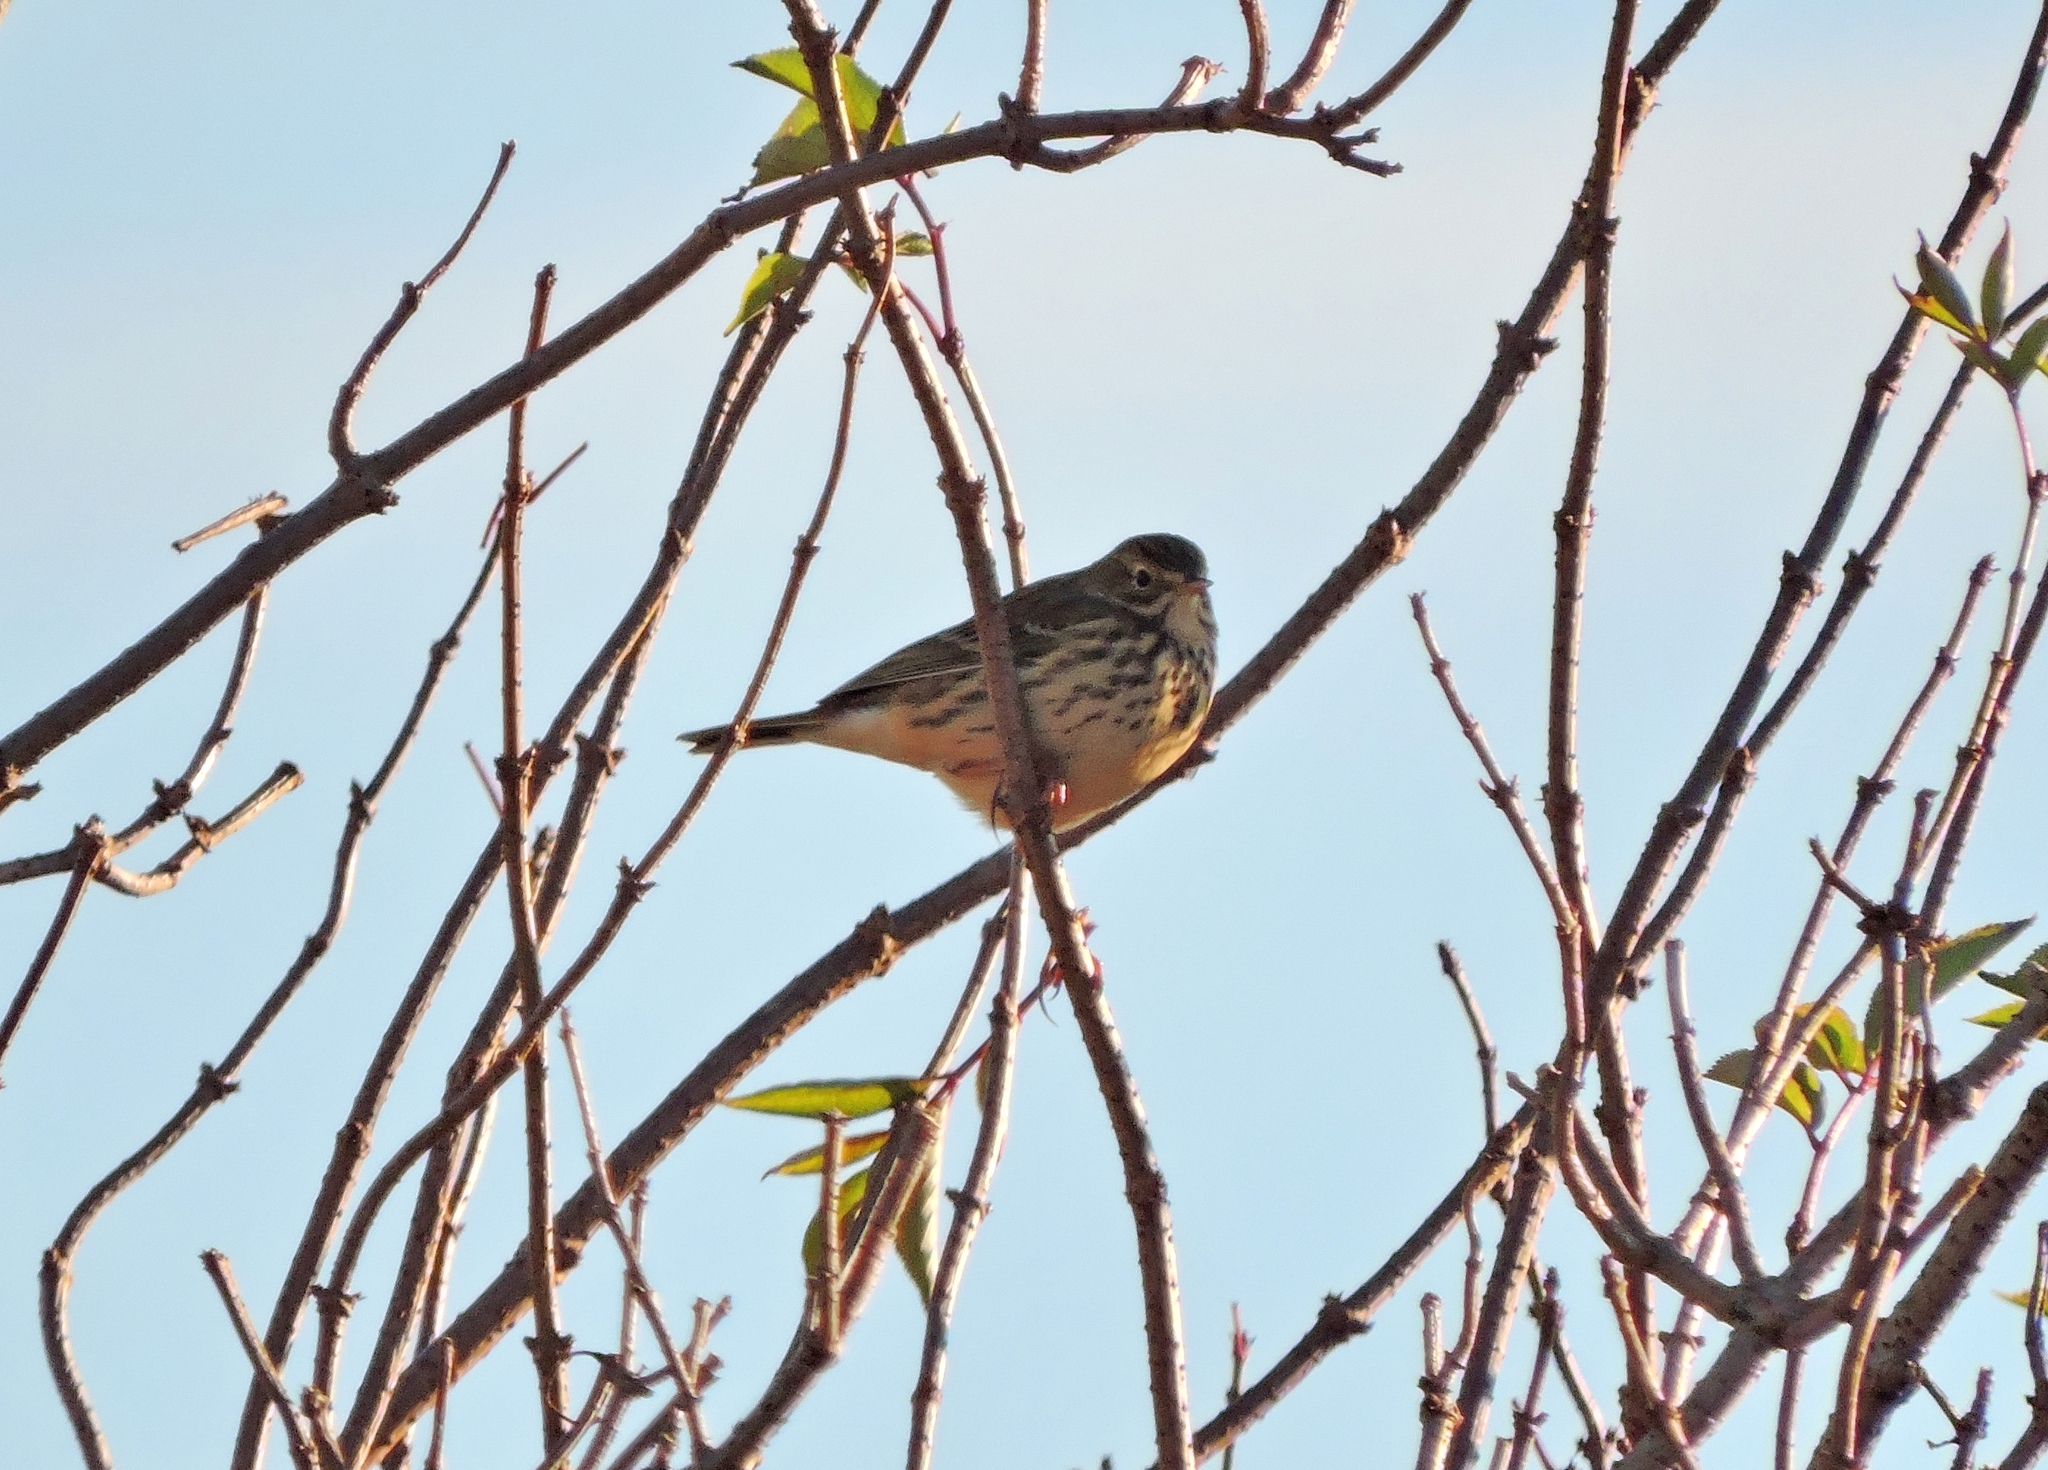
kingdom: Animalia
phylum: Chordata
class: Aves
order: Passeriformes
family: Motacillidae
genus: Anthus
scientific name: Anthus pratensis
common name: Meadow pipit
